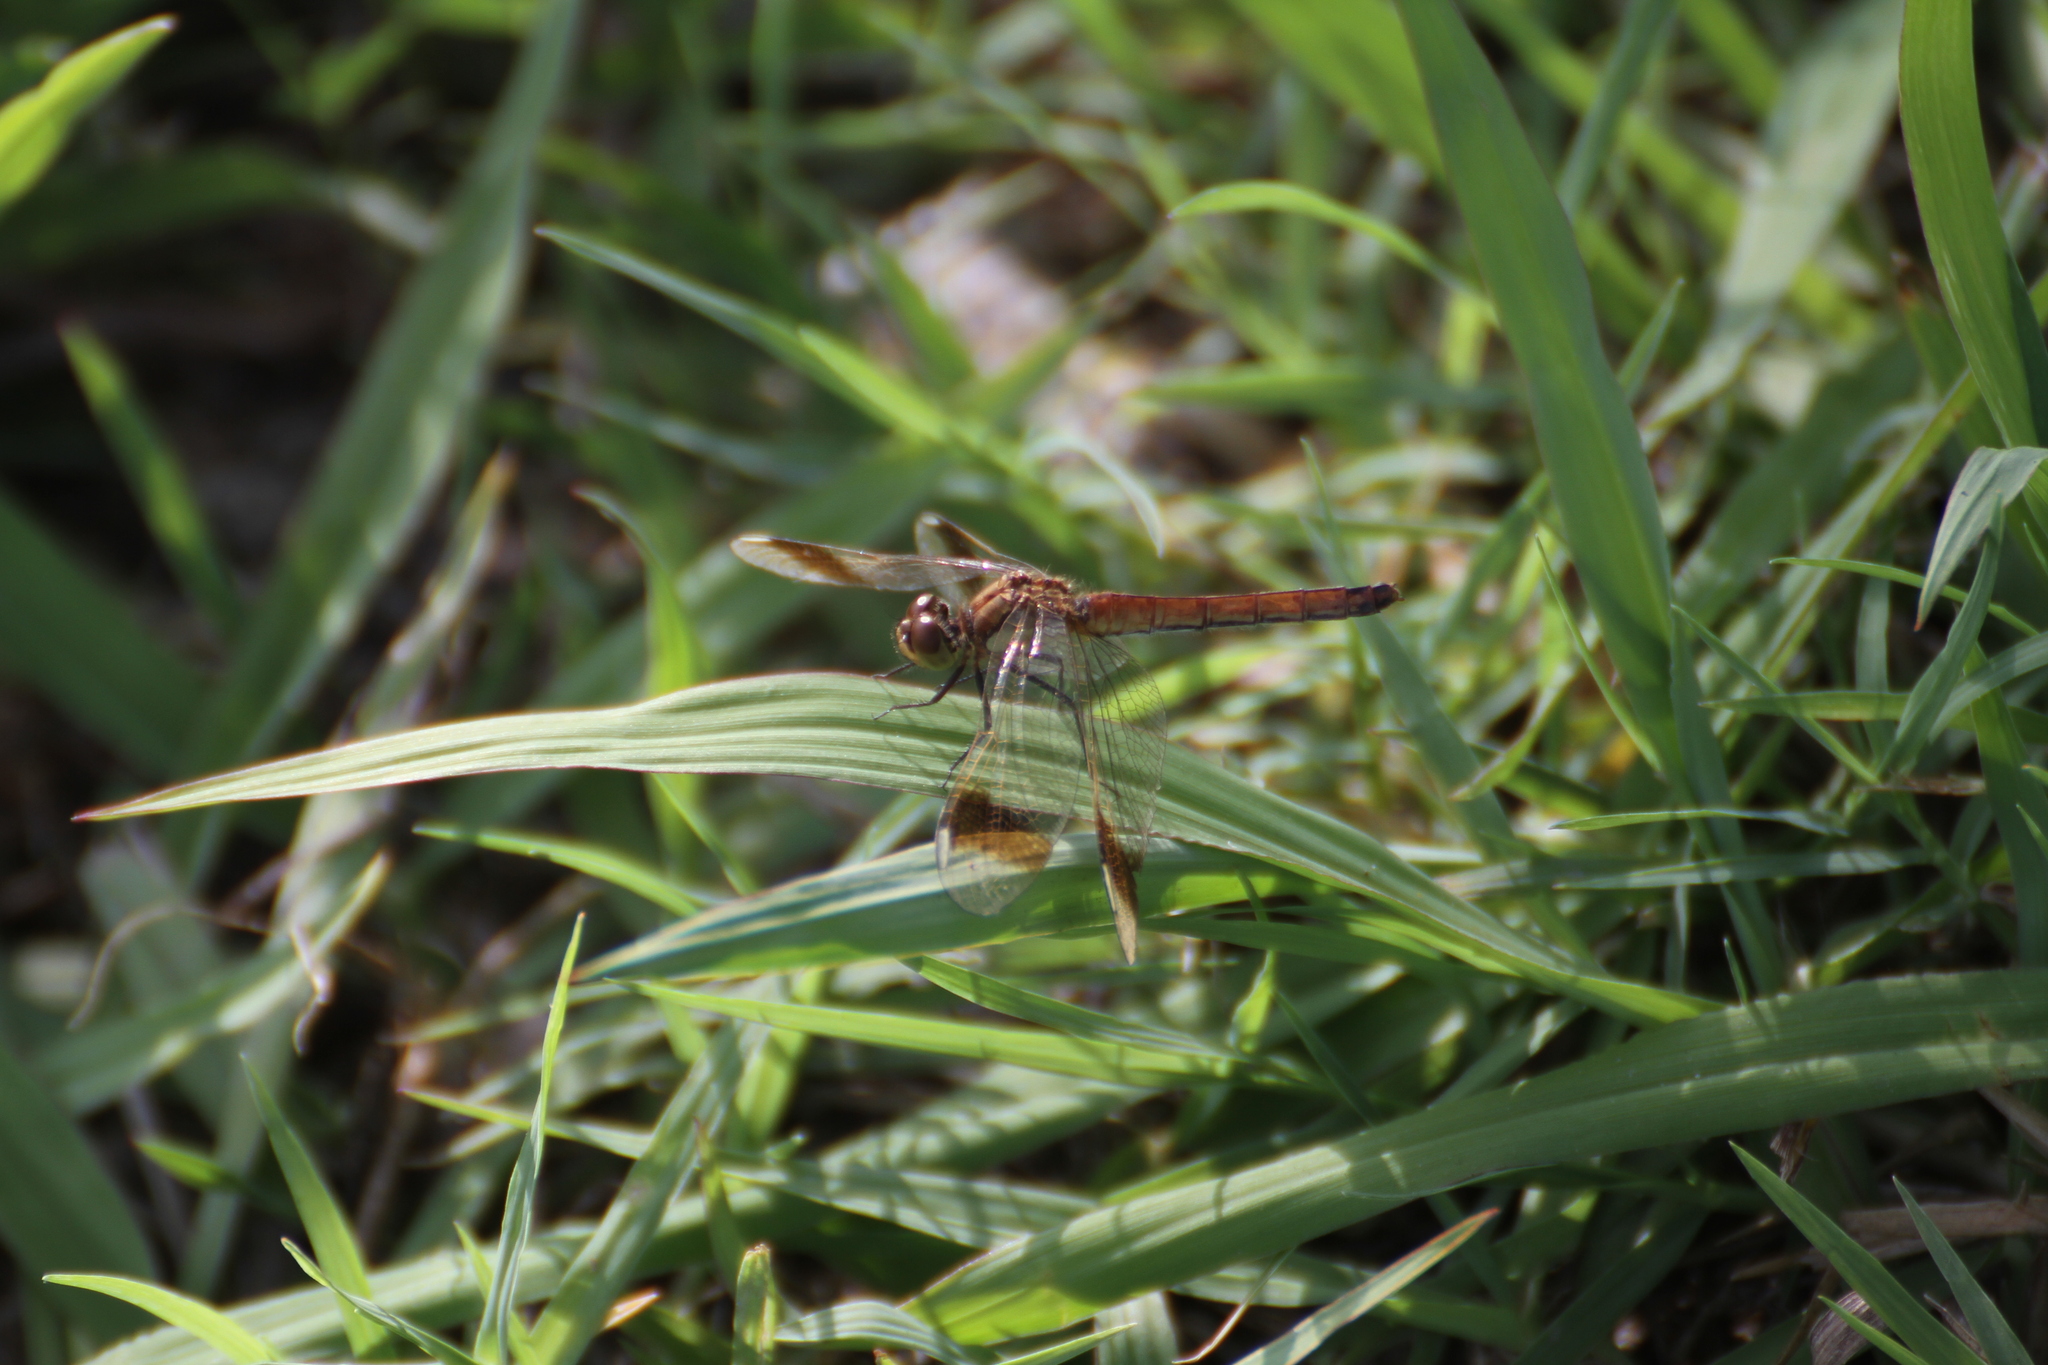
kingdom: Animalia
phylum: Arthropoda
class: Insecta
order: Odonata
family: Libellulidae
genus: Sympetrum
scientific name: Sympetrum pedemontanum
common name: Banded darter
